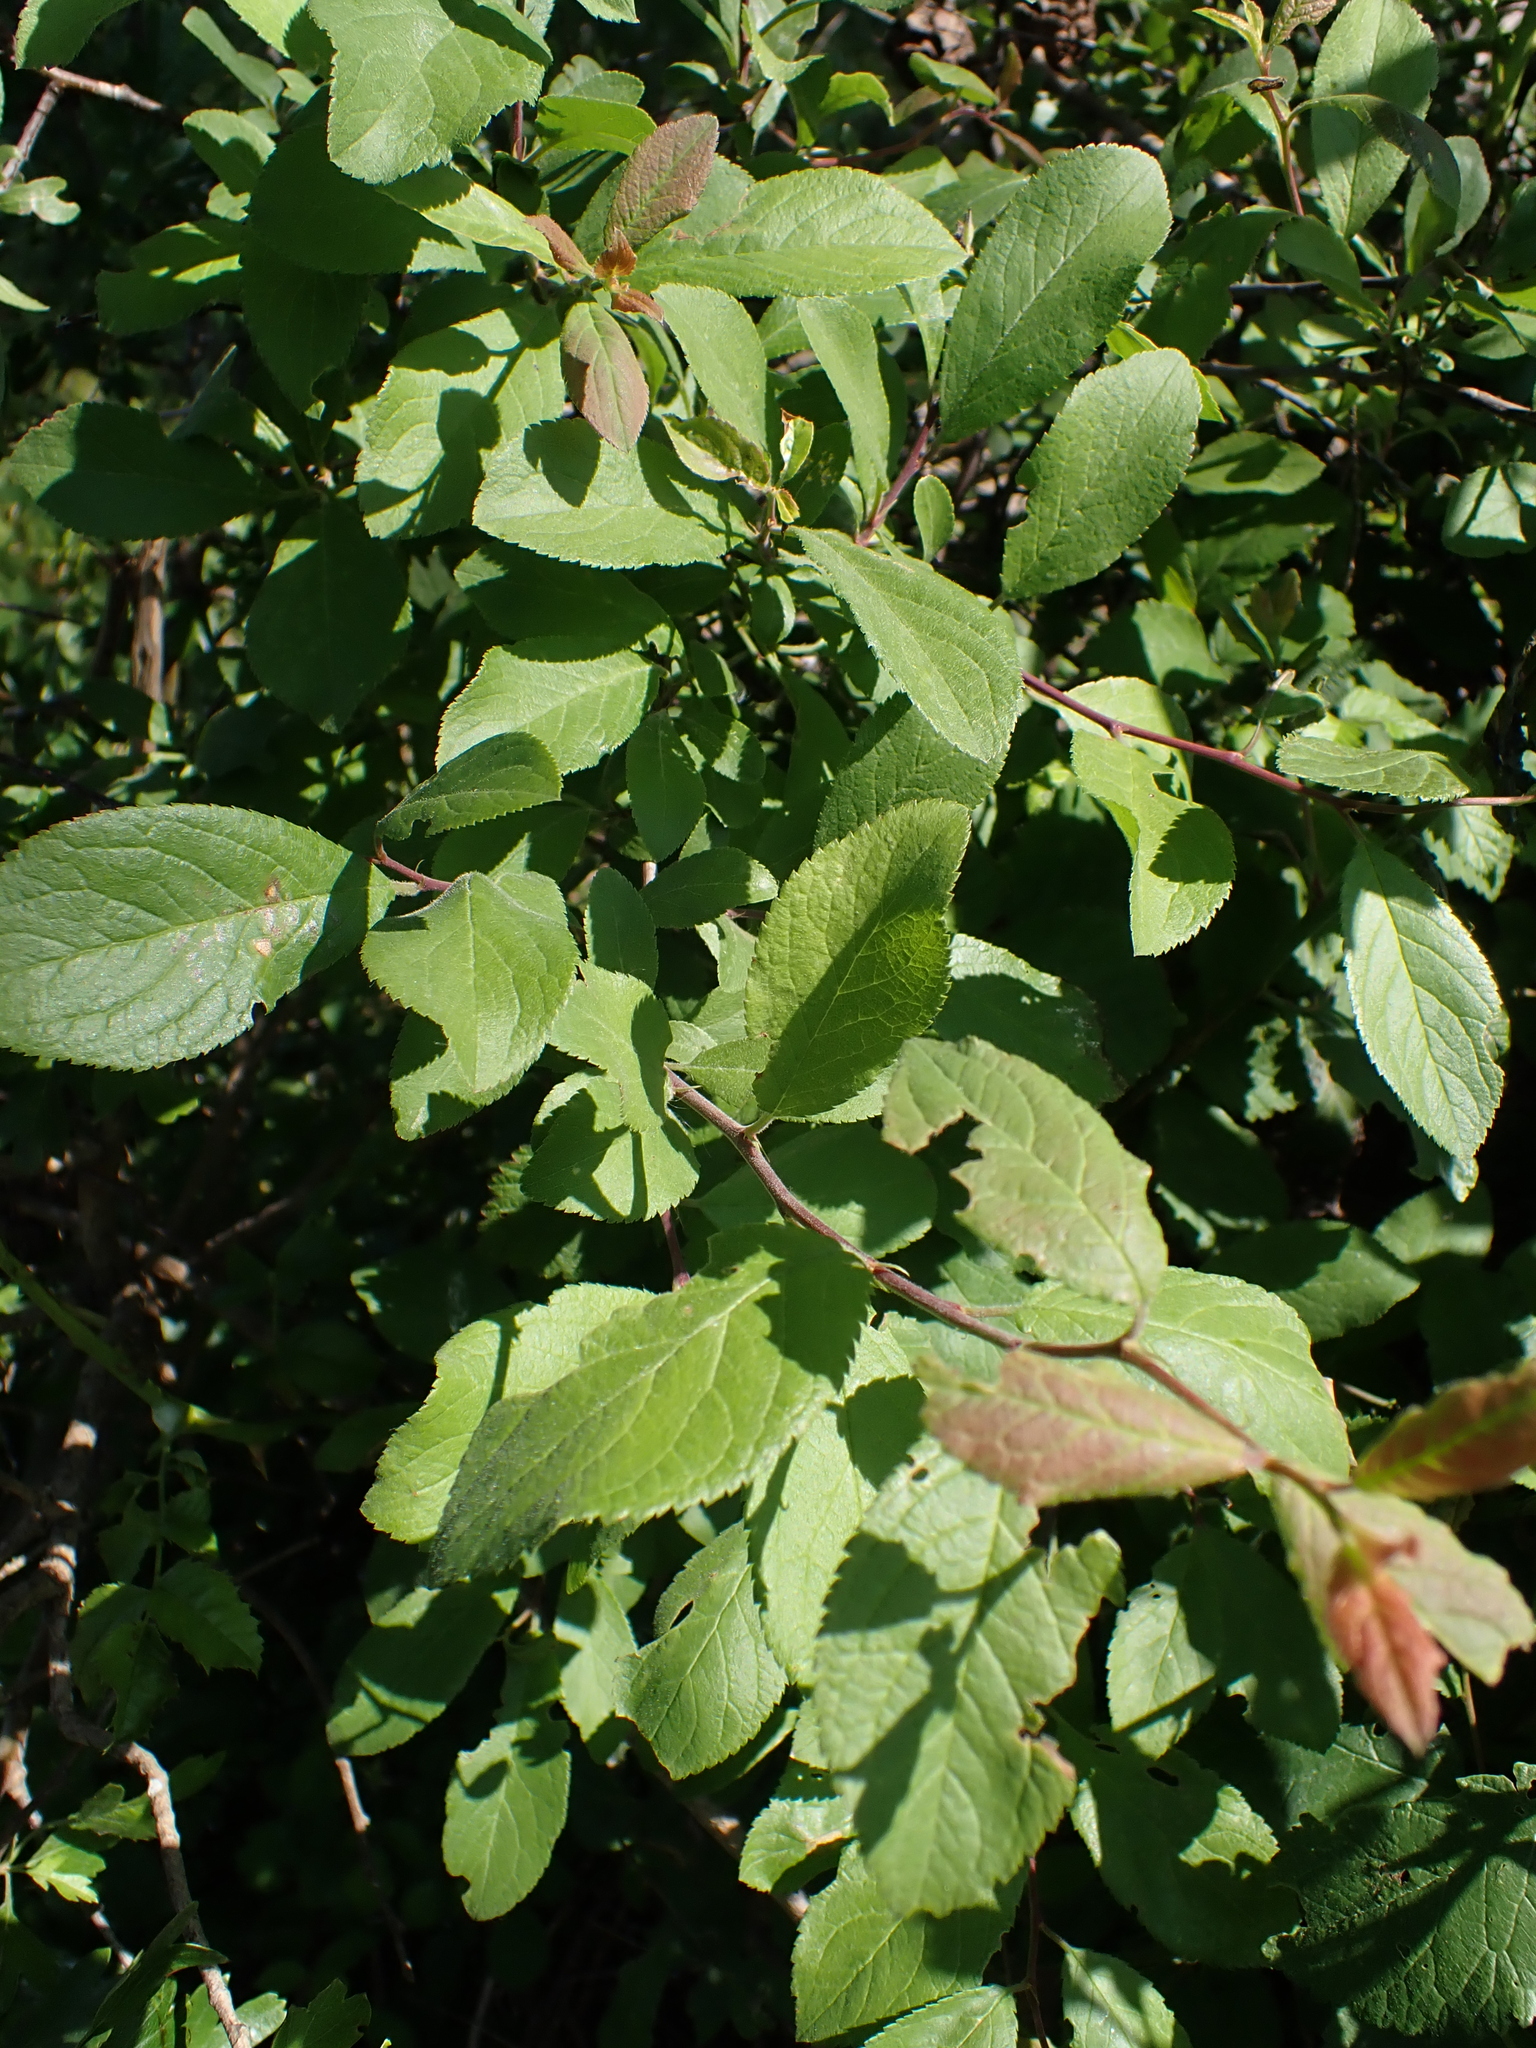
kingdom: Plantae
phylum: Tracheophyta
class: Magnoliopsida
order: Rosales
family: Rosaceae
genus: Prunus
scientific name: Prunus spinosa
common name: Blackthorn
